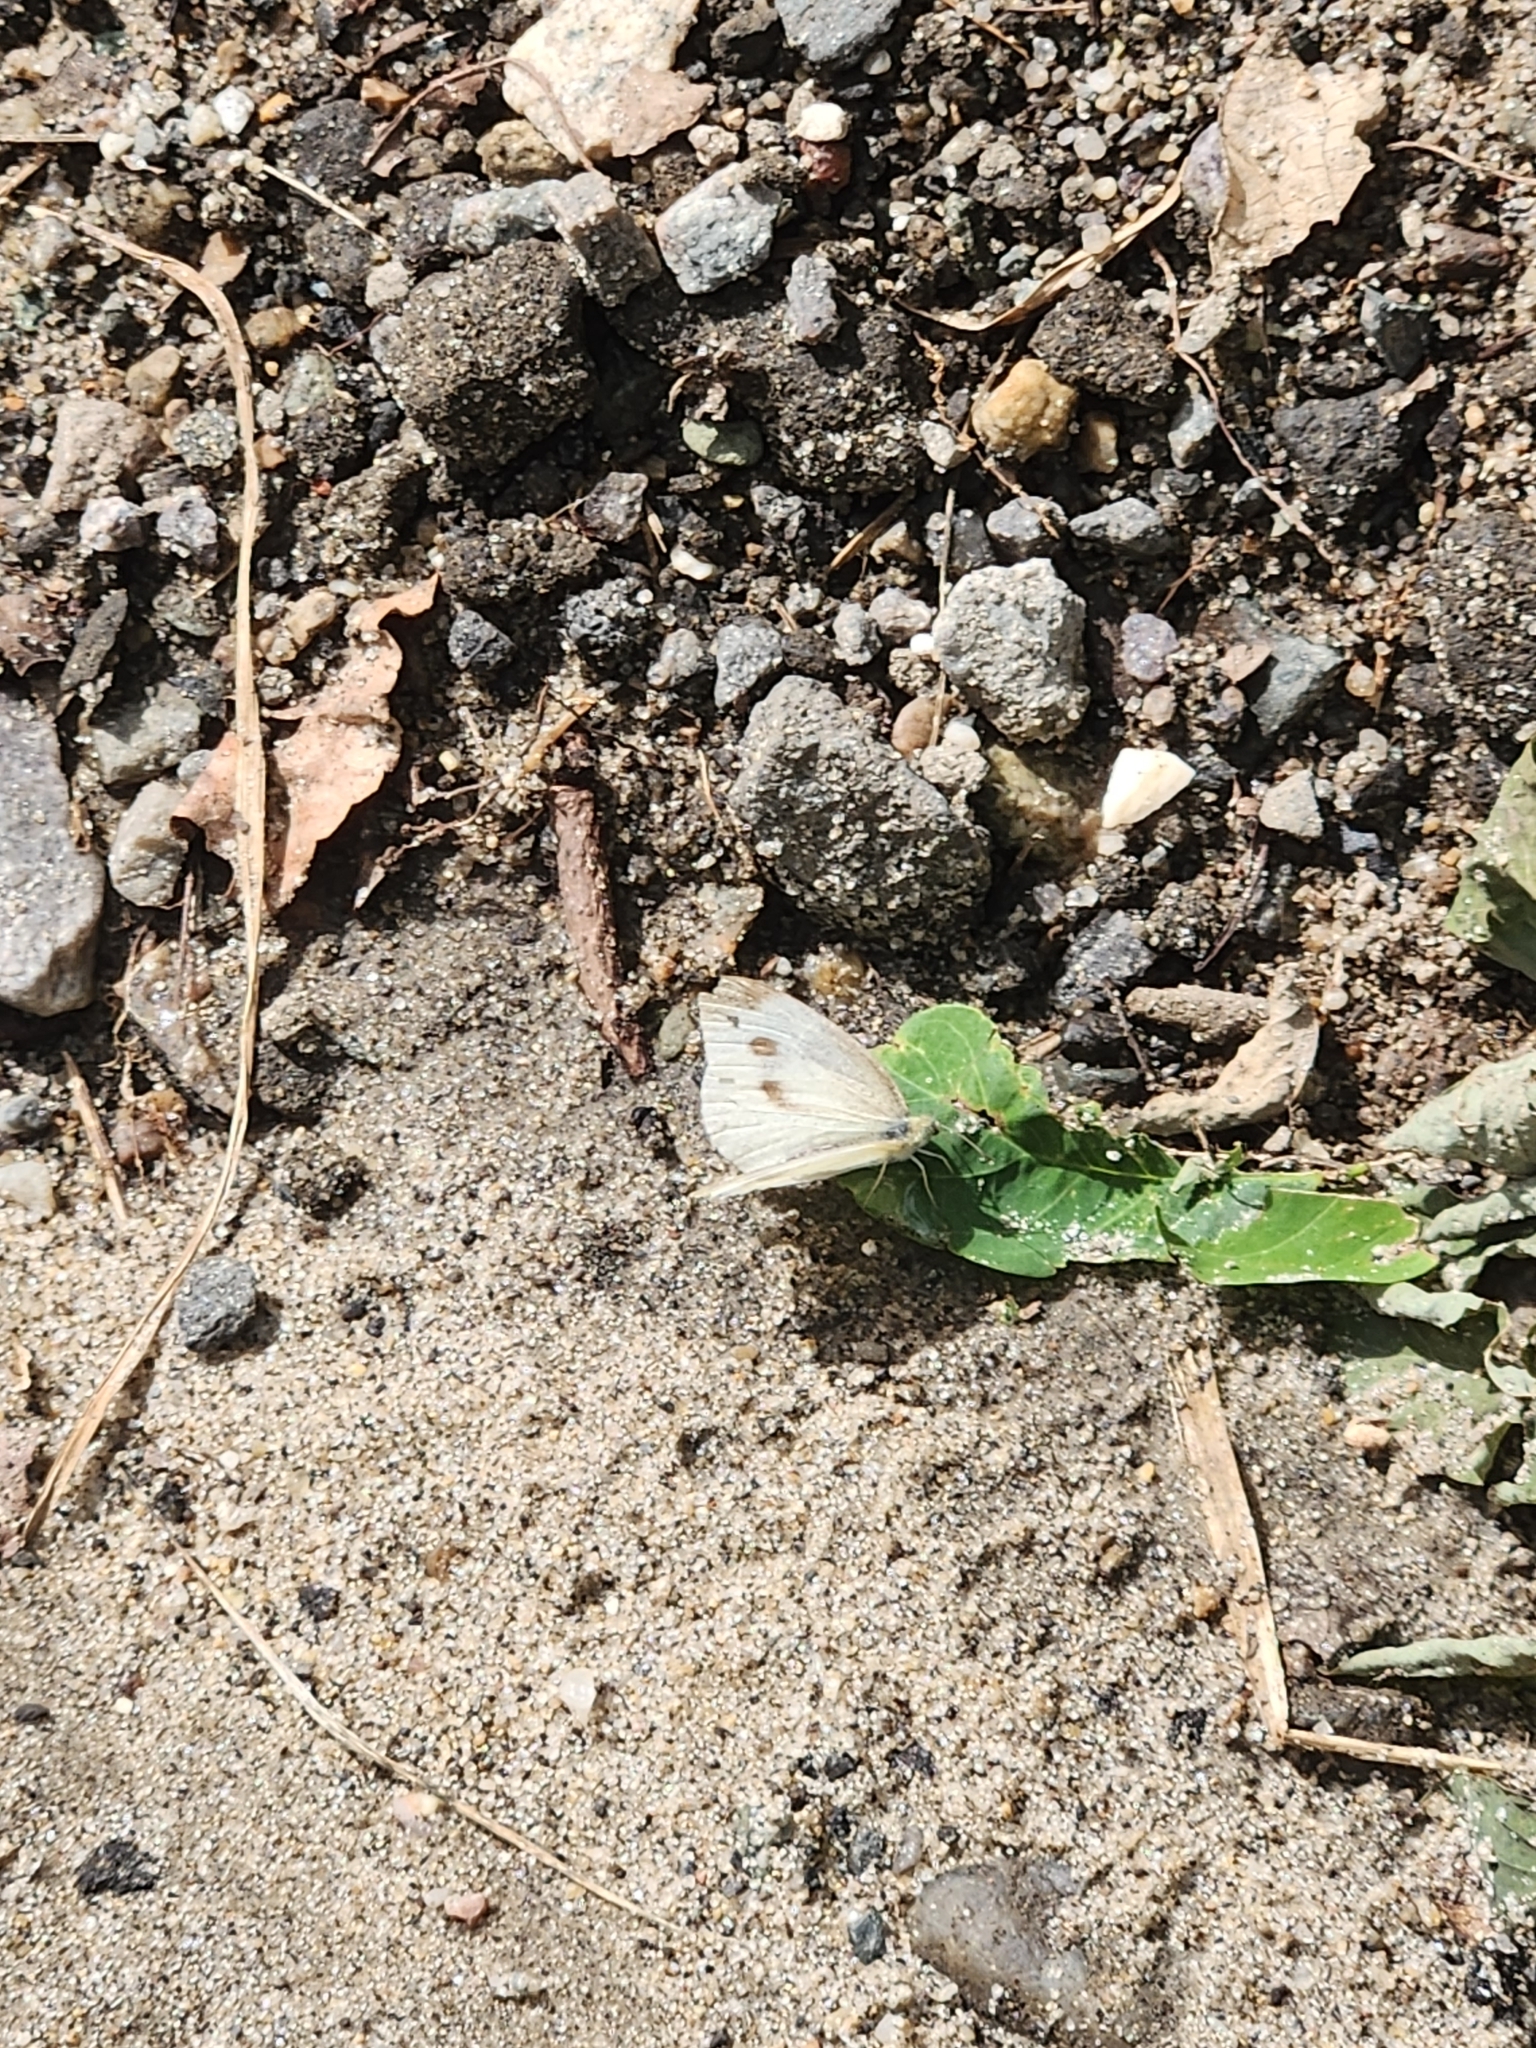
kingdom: Animalia
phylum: Arthropoda
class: Insecta
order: Lepidoptera
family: Pieridae
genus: Pieris
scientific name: Pieris rapae
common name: Small white
